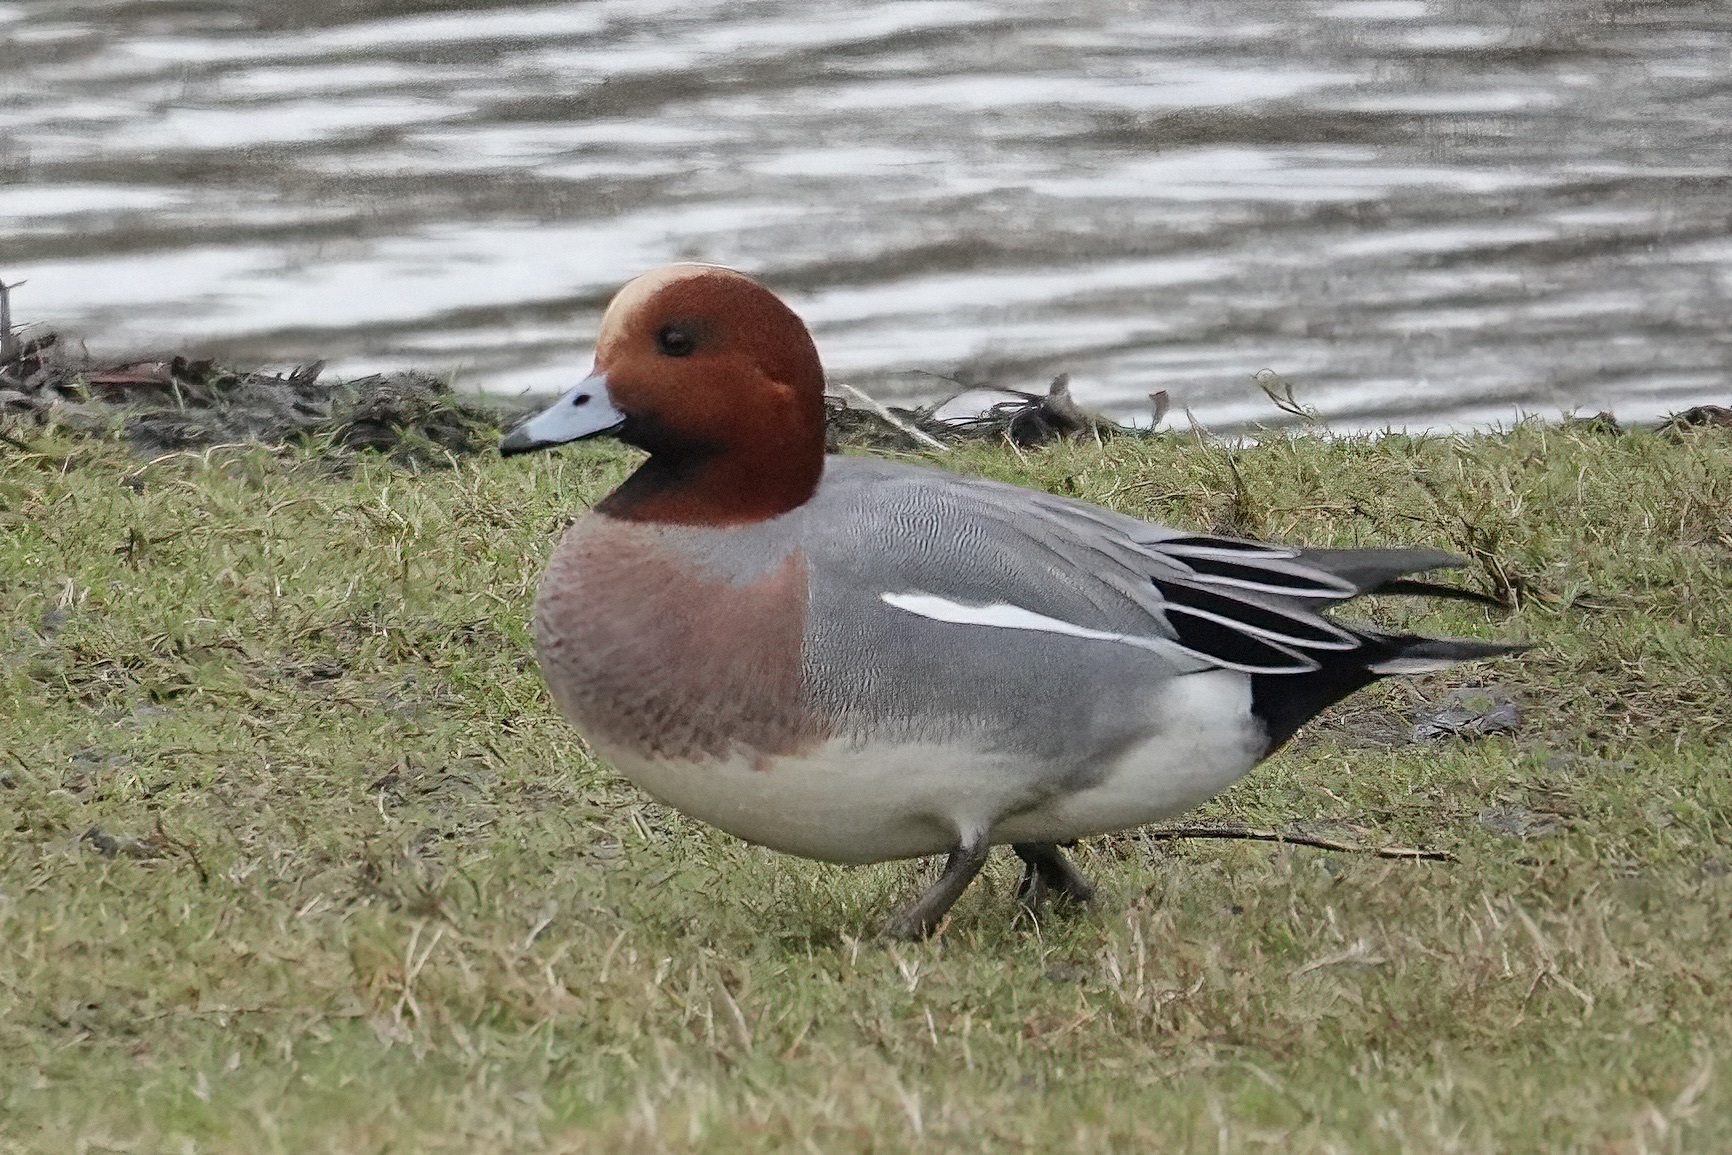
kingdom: Animalia
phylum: Chordata
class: Aves
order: Anseriformes
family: Anatidae
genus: Mareca
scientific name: Mareca penelope
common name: Eurasian wigeon
